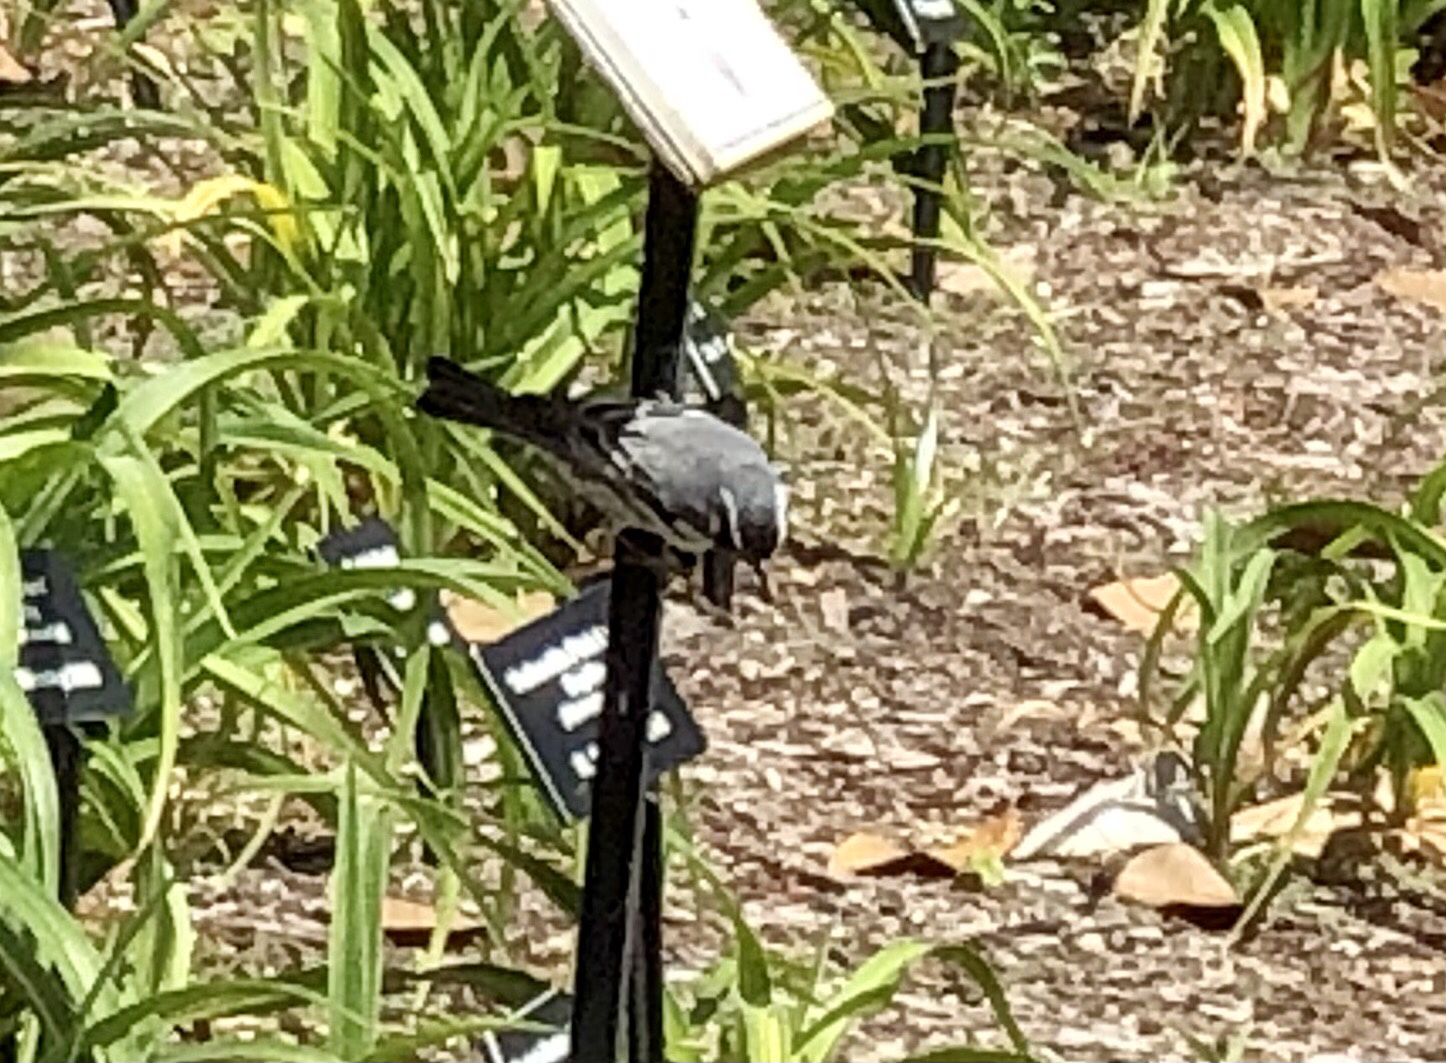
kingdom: Animalia
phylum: Chordata
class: Aves
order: Passeriformes
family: Parulidae
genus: Setophaga
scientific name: Setophaga dominica
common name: Yellow-throated warbler
